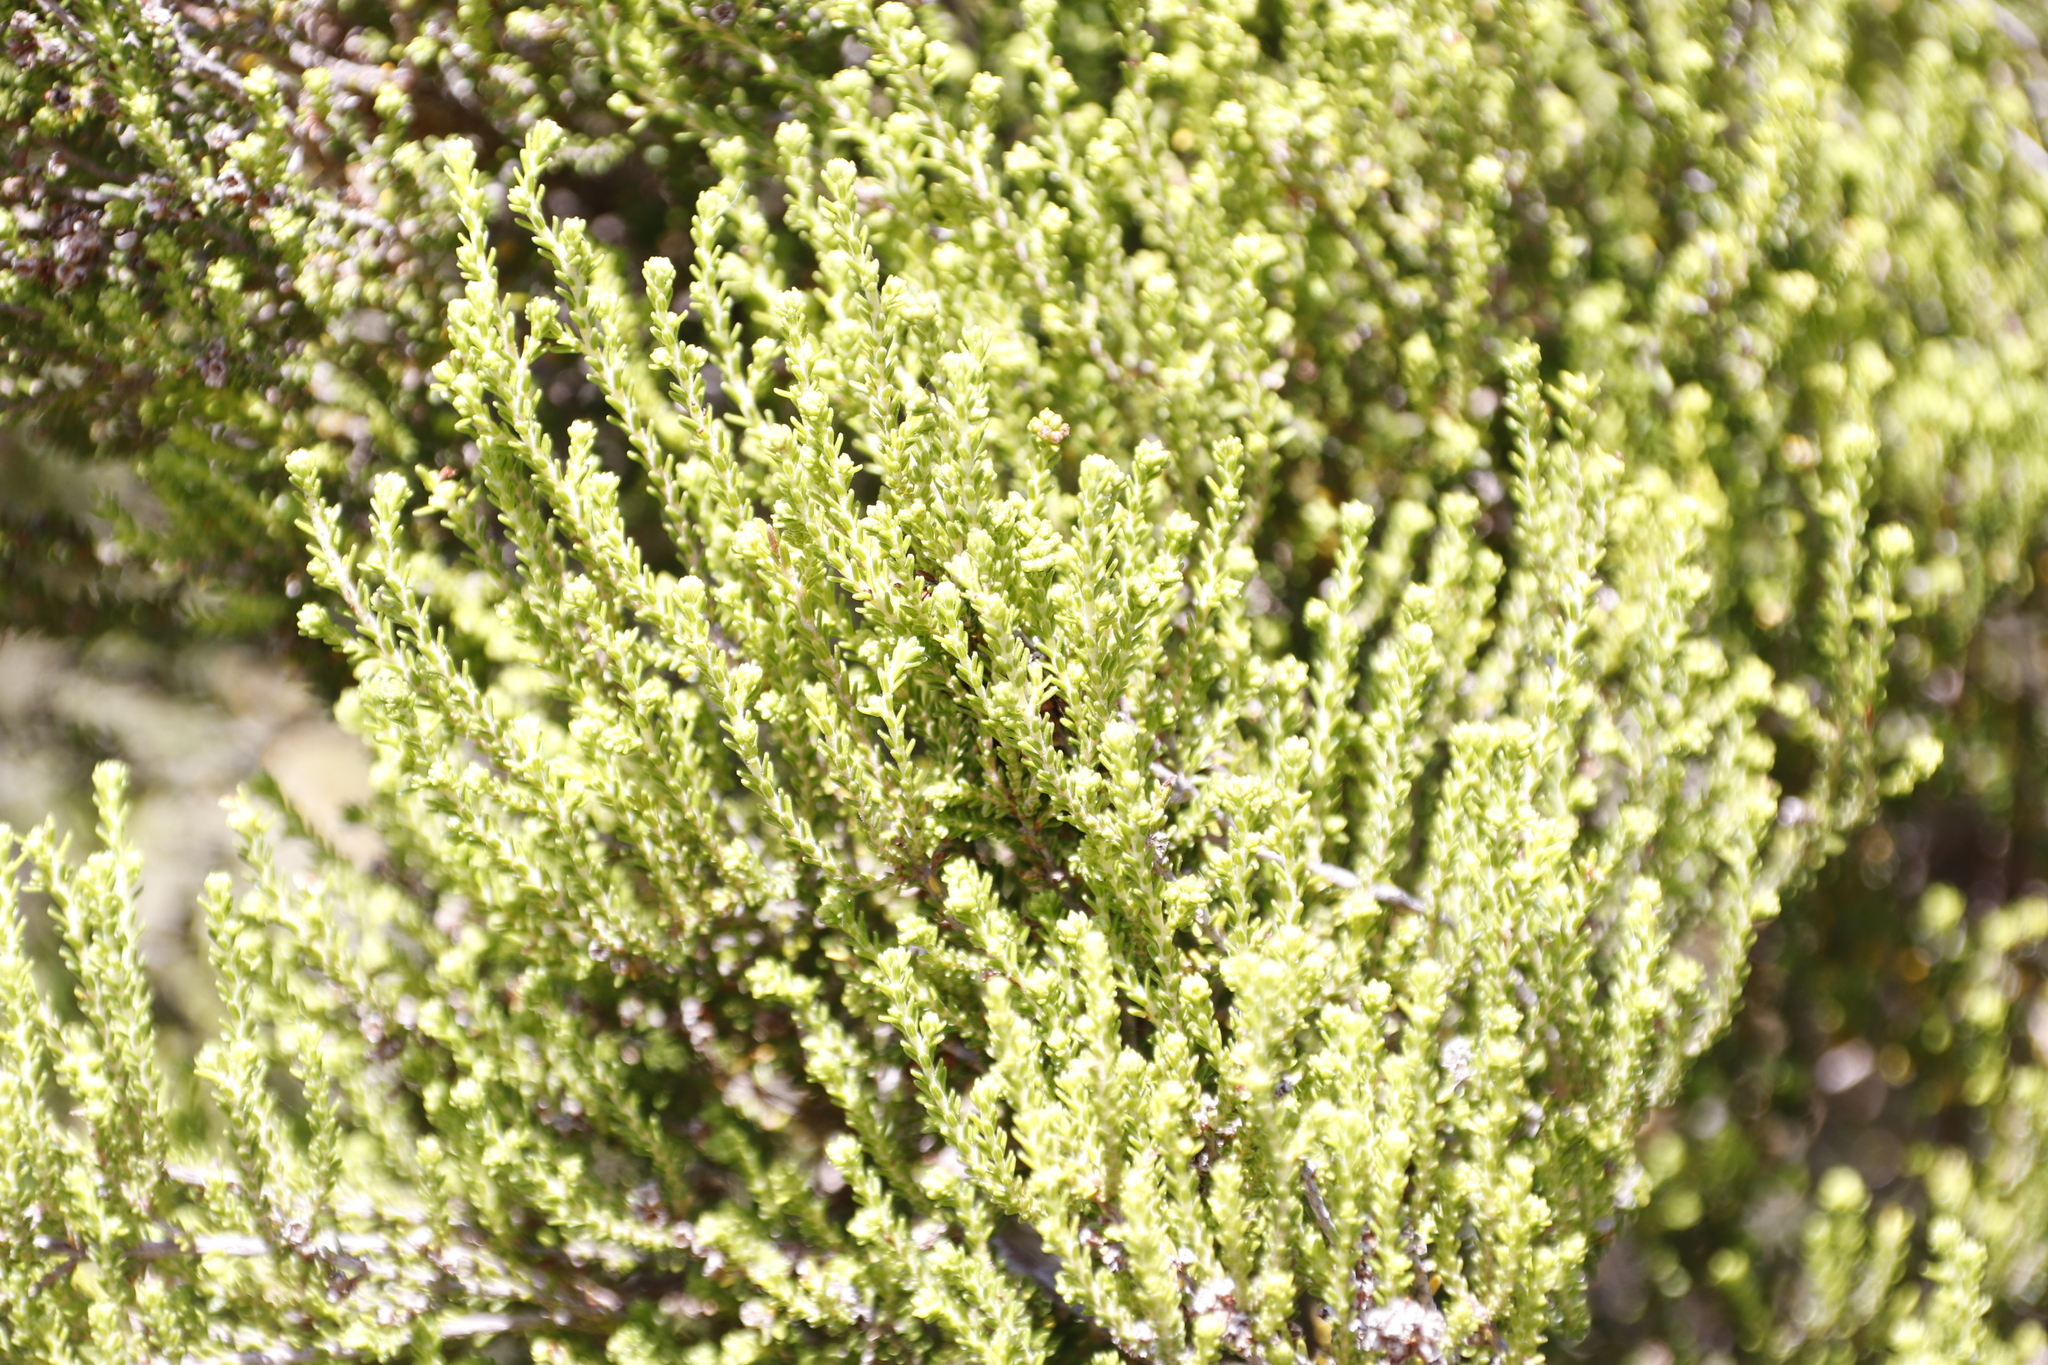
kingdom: Plantae
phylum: Tracheophyta
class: Magnoliopsida
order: Ericales
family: Ericaceae
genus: Erica
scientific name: Erica tristis
